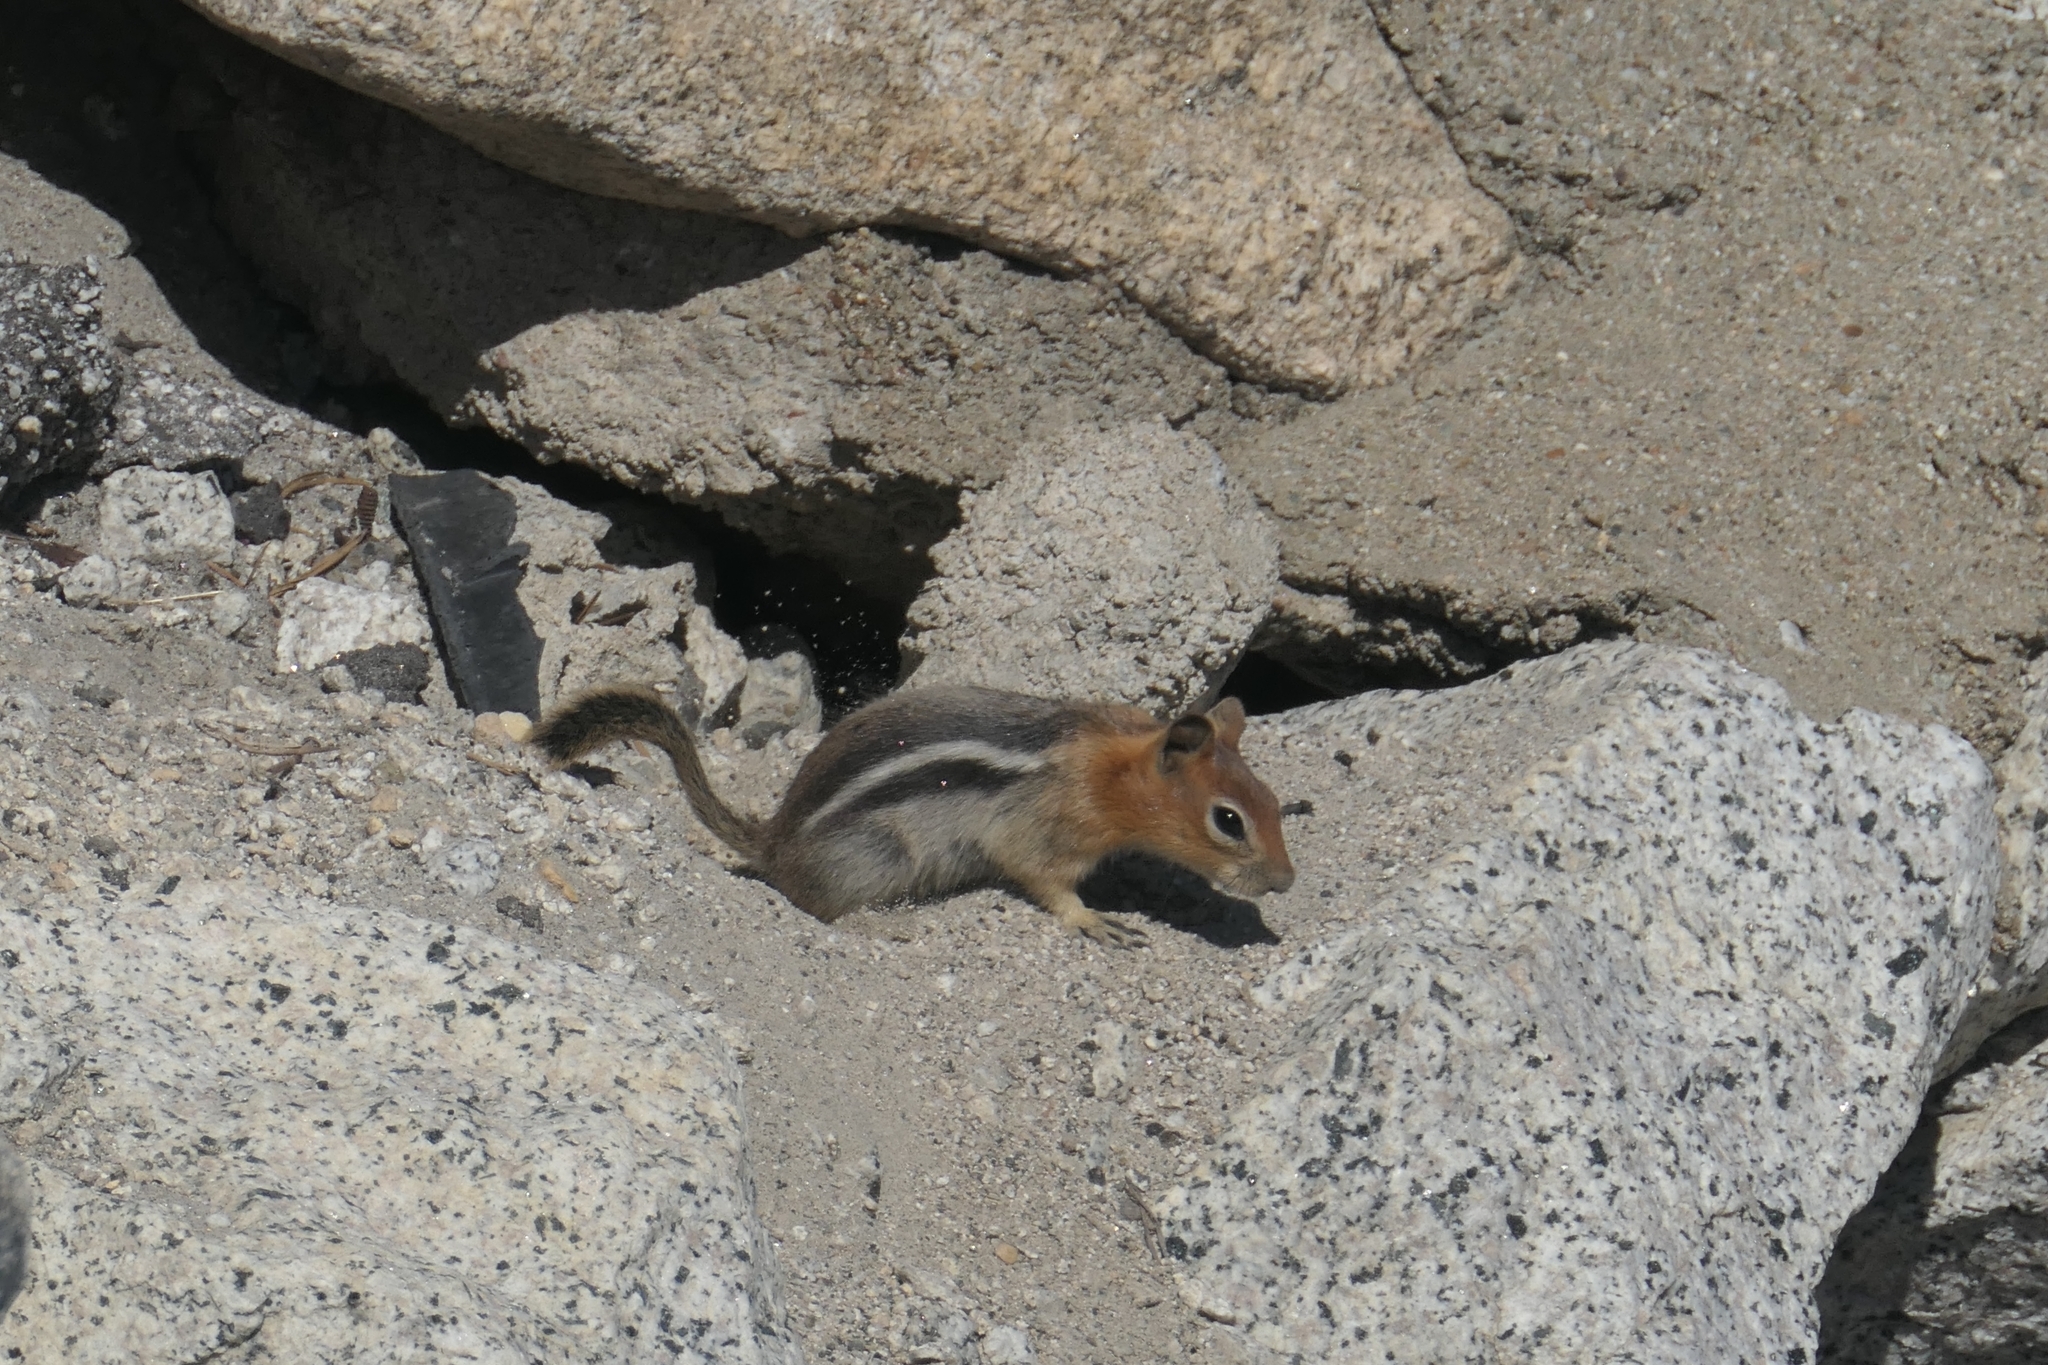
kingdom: Animalia
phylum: Chordata
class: Mammalia
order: Rodentia
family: Sciuridae
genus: Callospermophilus
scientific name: Callospermophilus lateralis
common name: Golden-mantled ground squirrel
